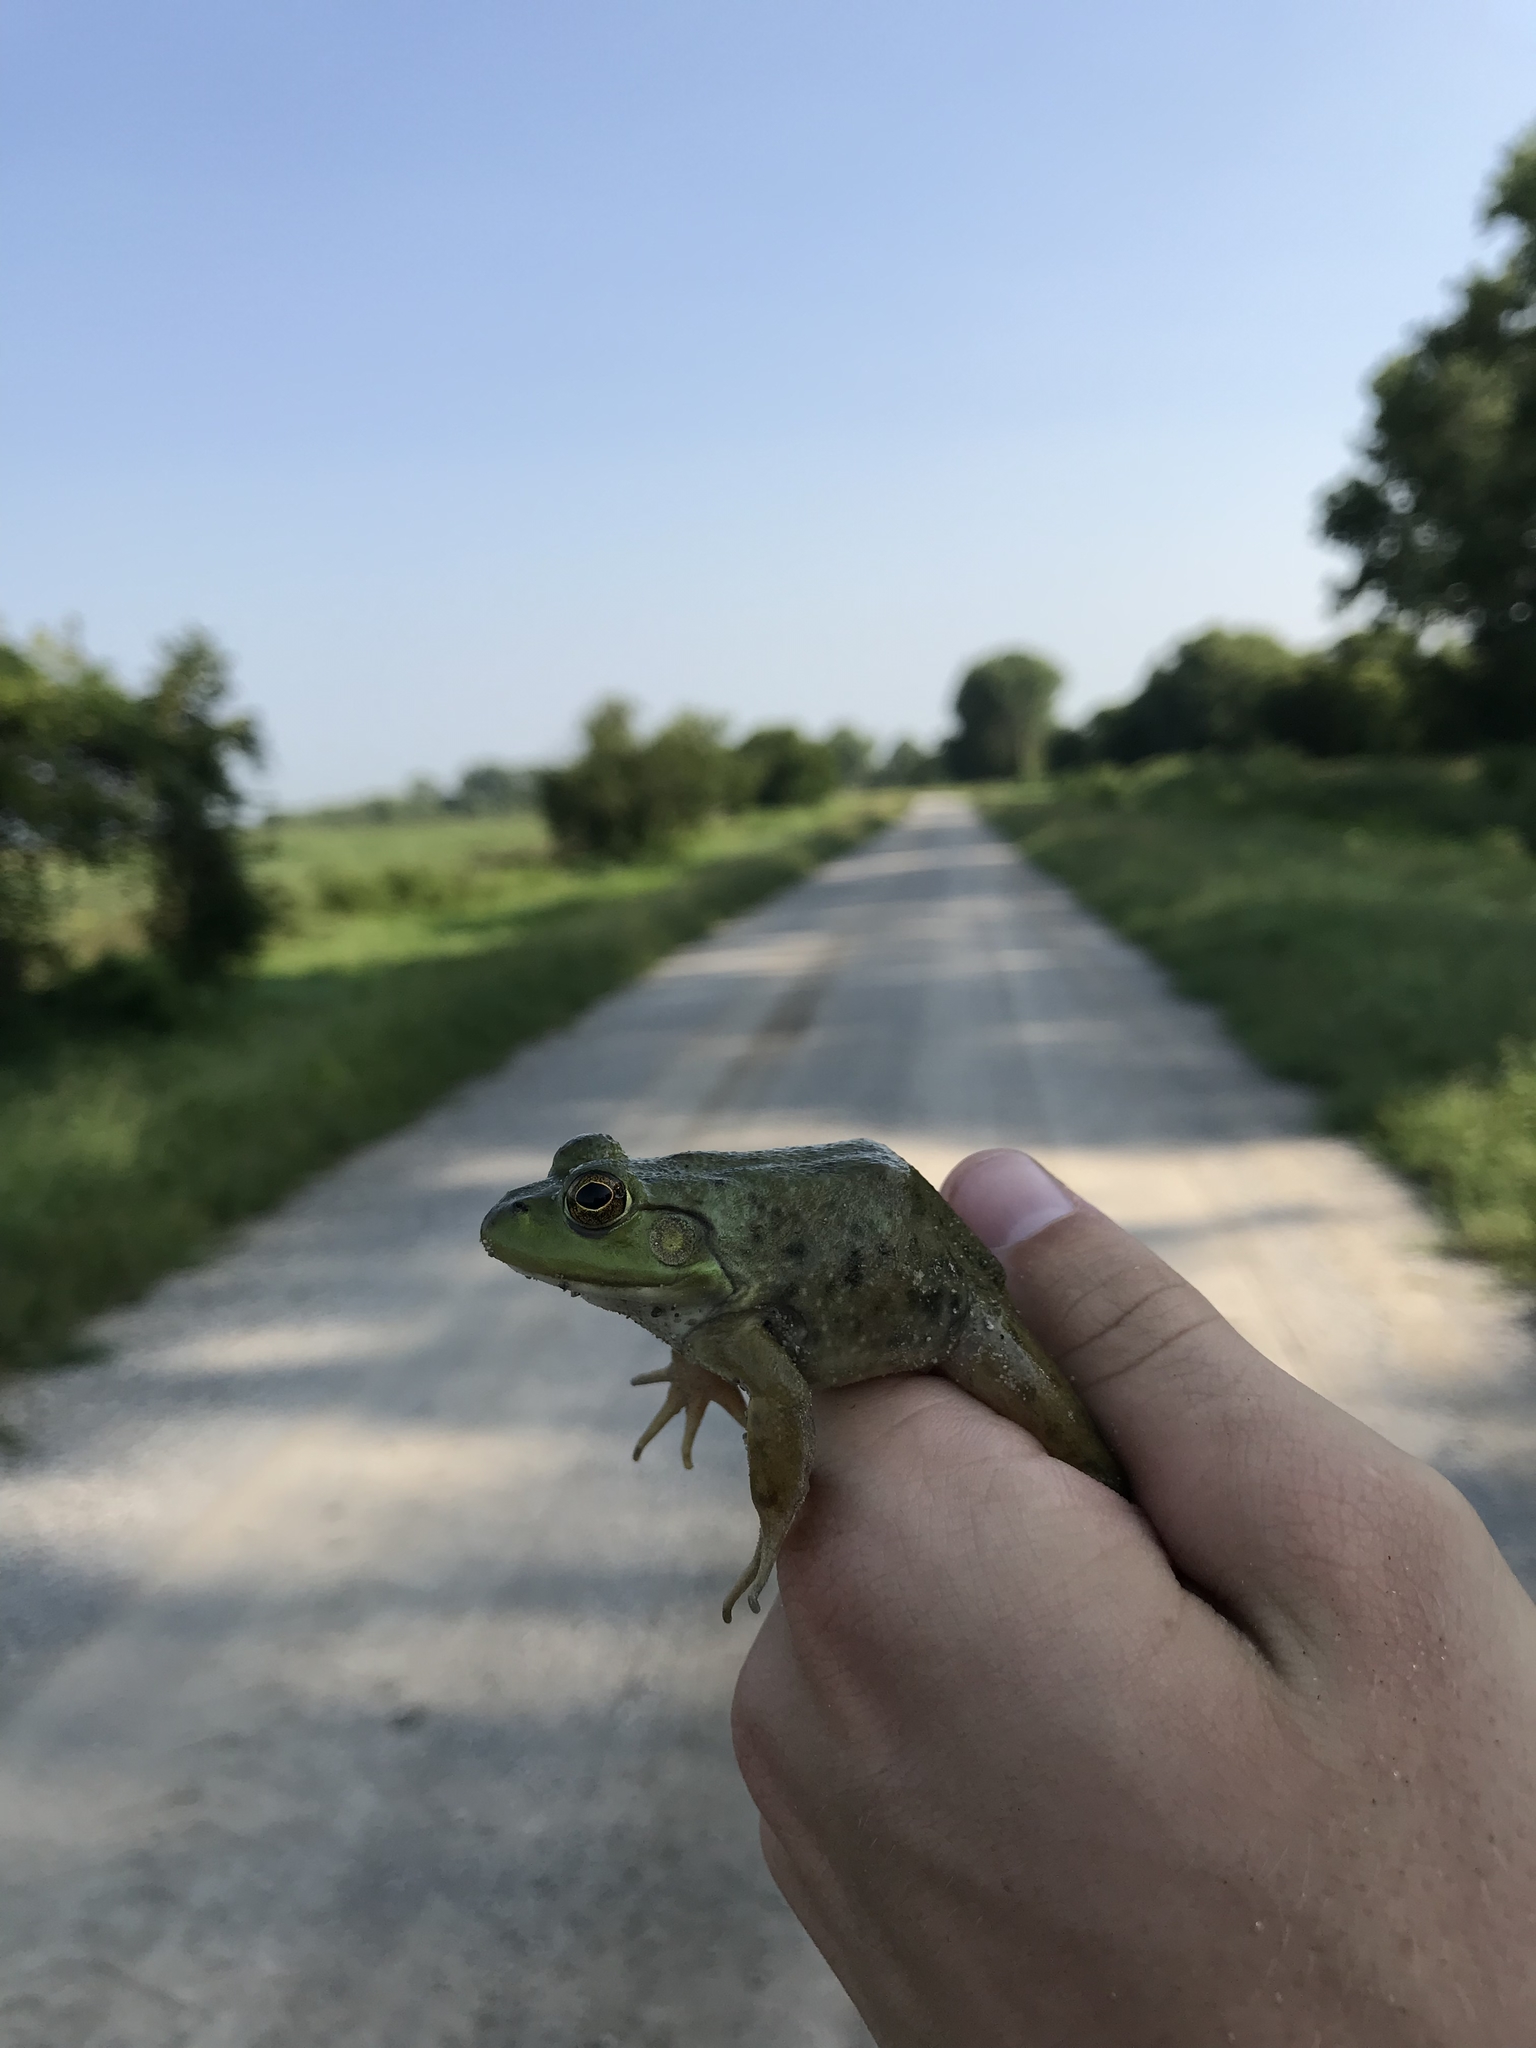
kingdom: Animalia
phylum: Chordata
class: Amphibia
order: Anura
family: Ranidae
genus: Lithobates
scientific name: Lithobates catesbeianus
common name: American bullfrog
